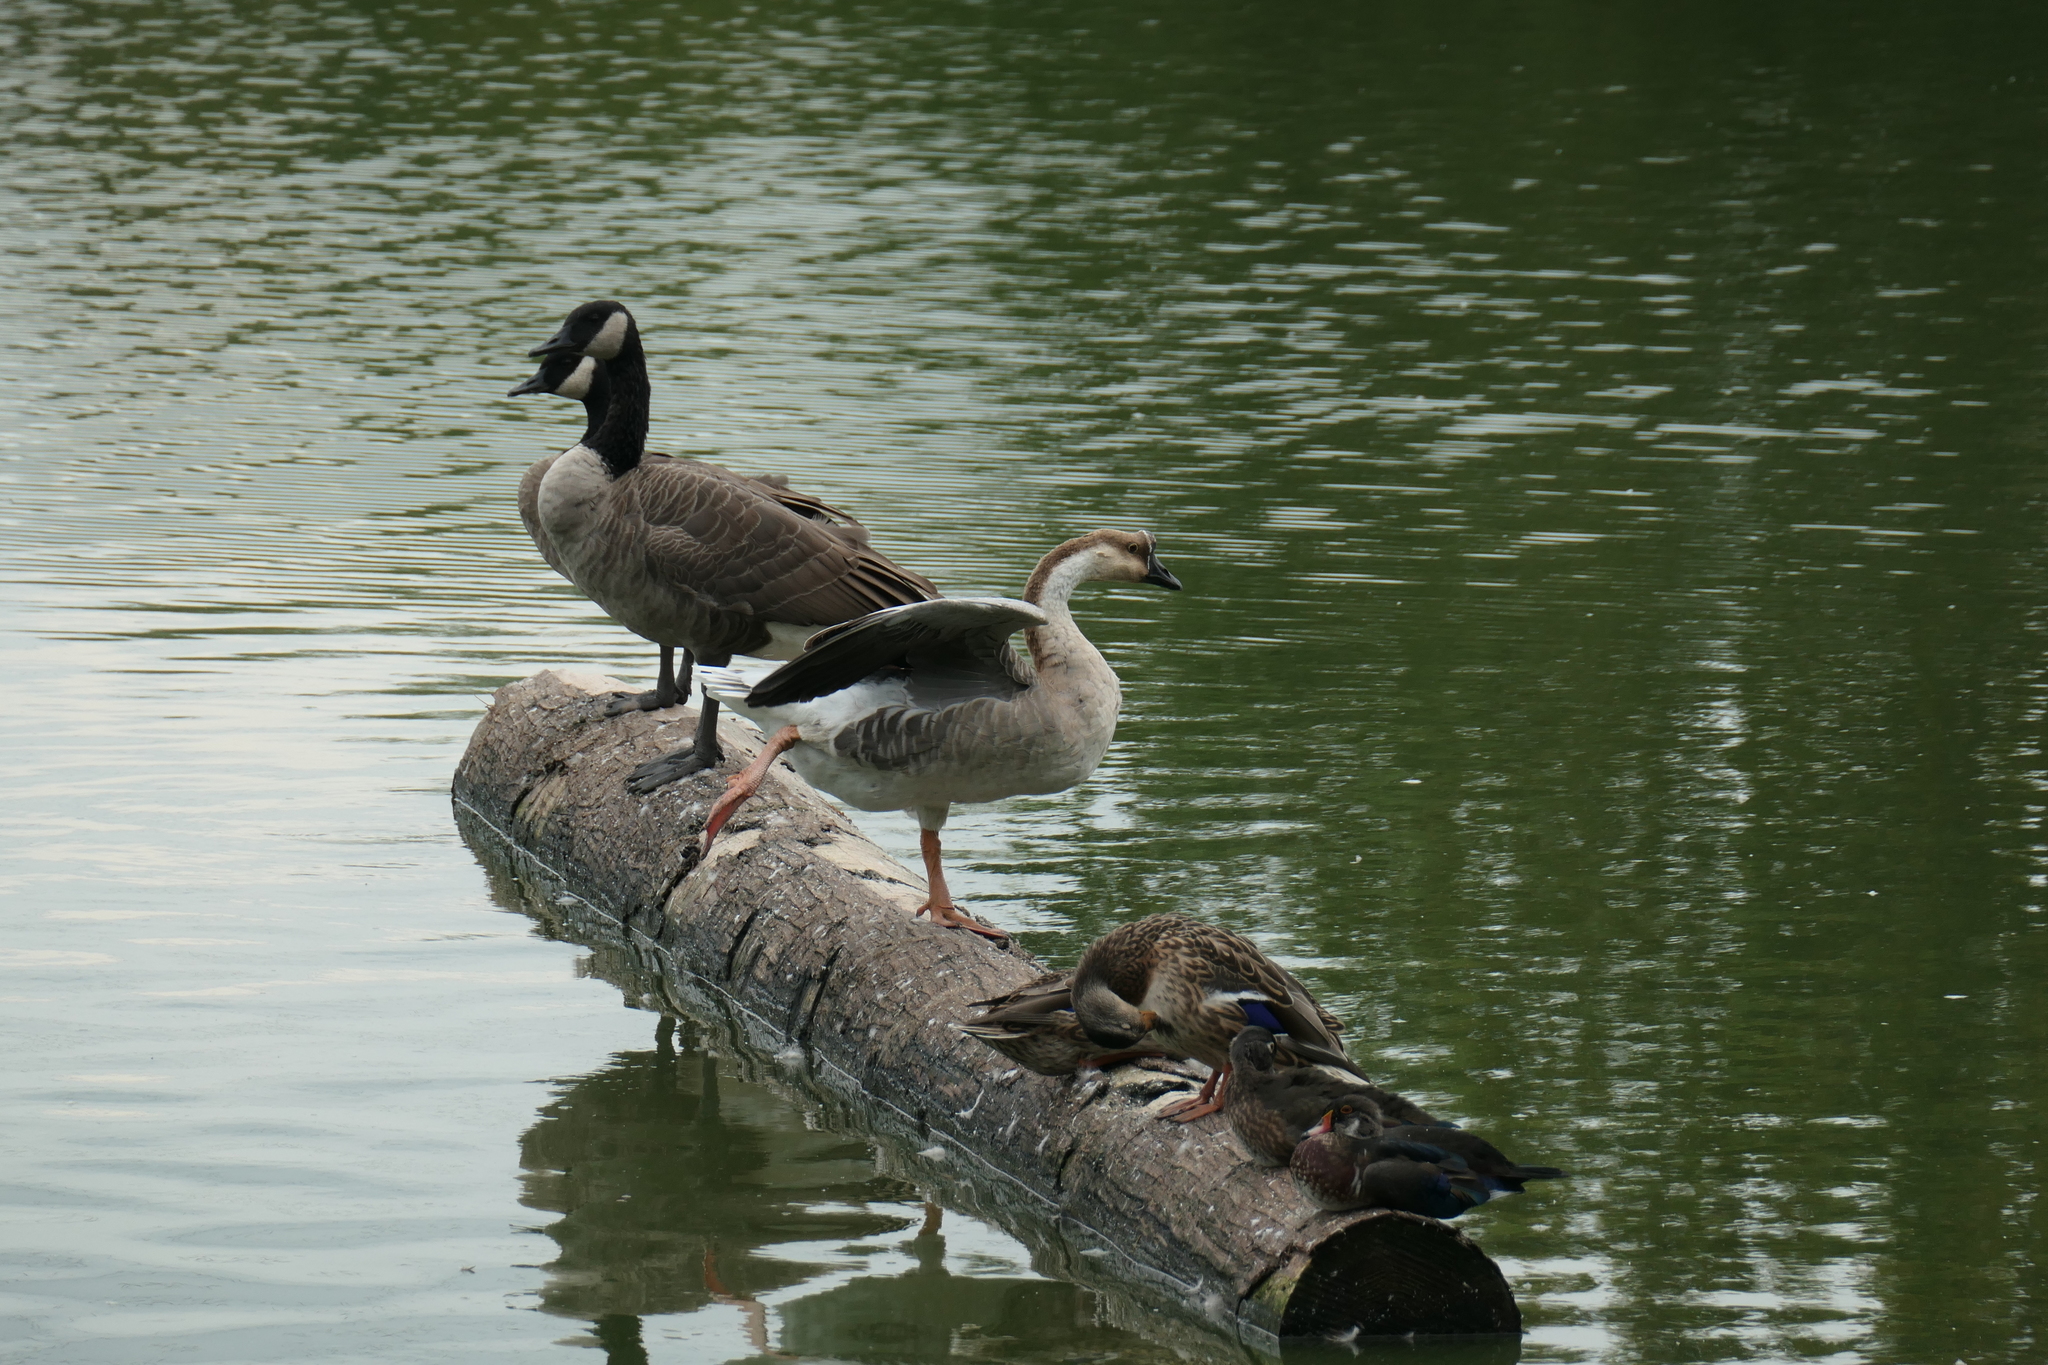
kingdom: Animalia
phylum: Chordata
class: Aves
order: Anseriformes
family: Anatidae
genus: Anser
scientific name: Anser cygnoides
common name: Swan goose
